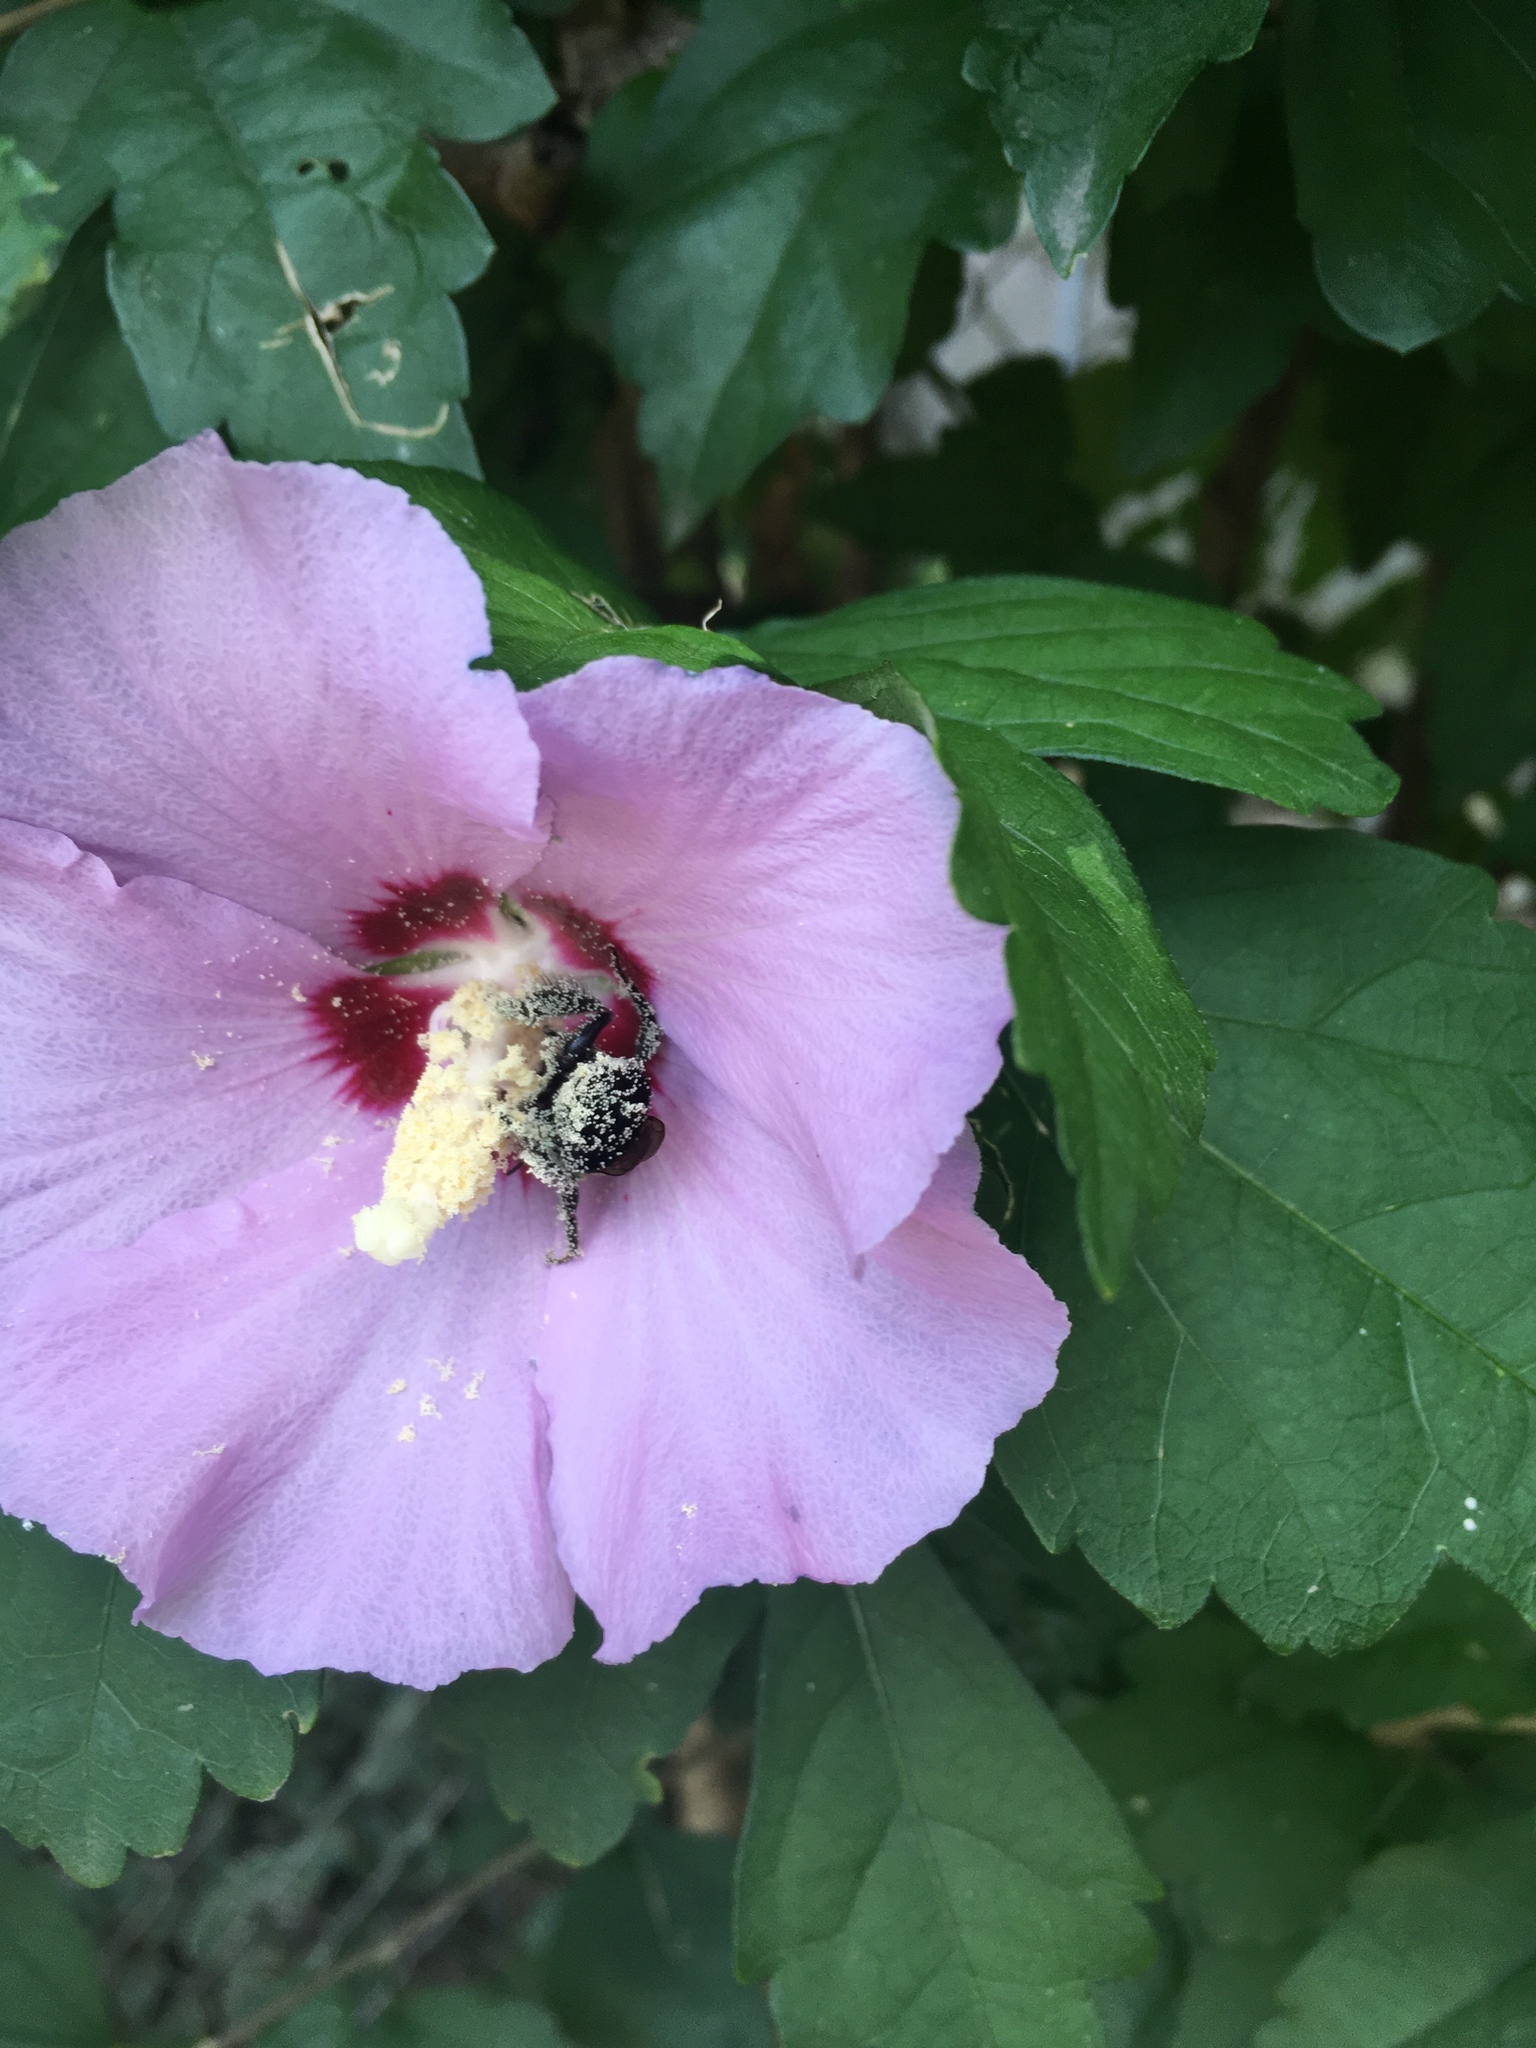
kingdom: Animalia
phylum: Arthropoda
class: Insecta
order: Hymenoptera
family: Apidae
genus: Bombus
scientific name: Bombus impatiens
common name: Common eastern bumble bee
